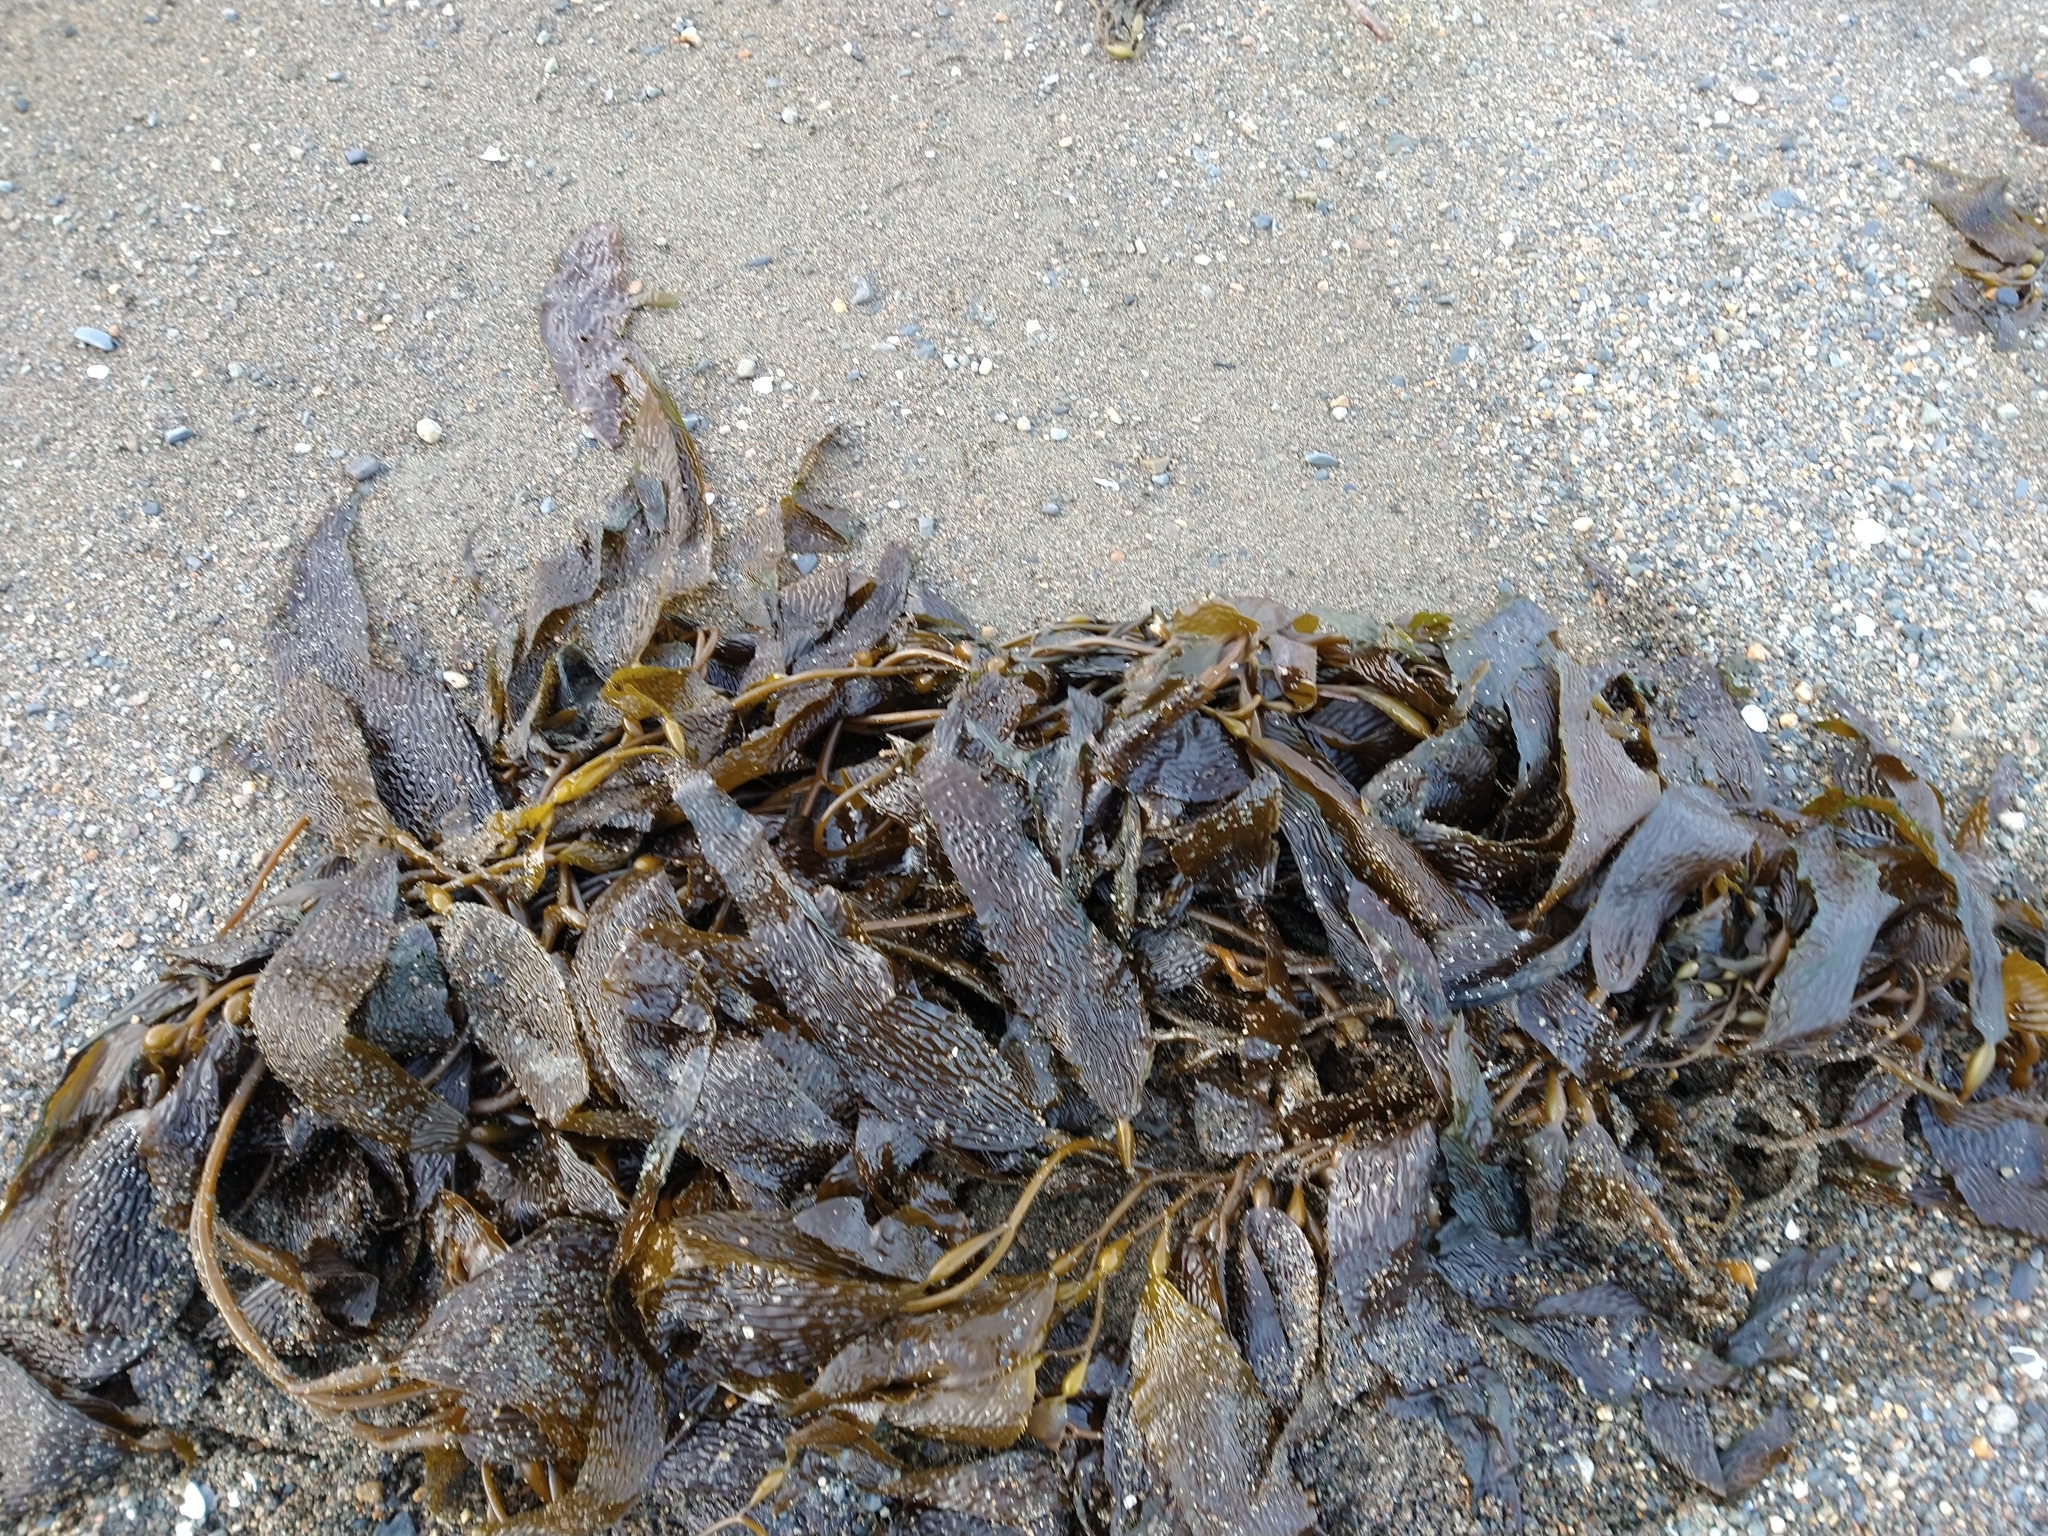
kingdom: Chromista
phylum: Ochrophyta
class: Phaeophyceae
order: Laminariales
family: Laminariaceae
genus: Macrocystis
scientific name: Macrocystis pyrifera
